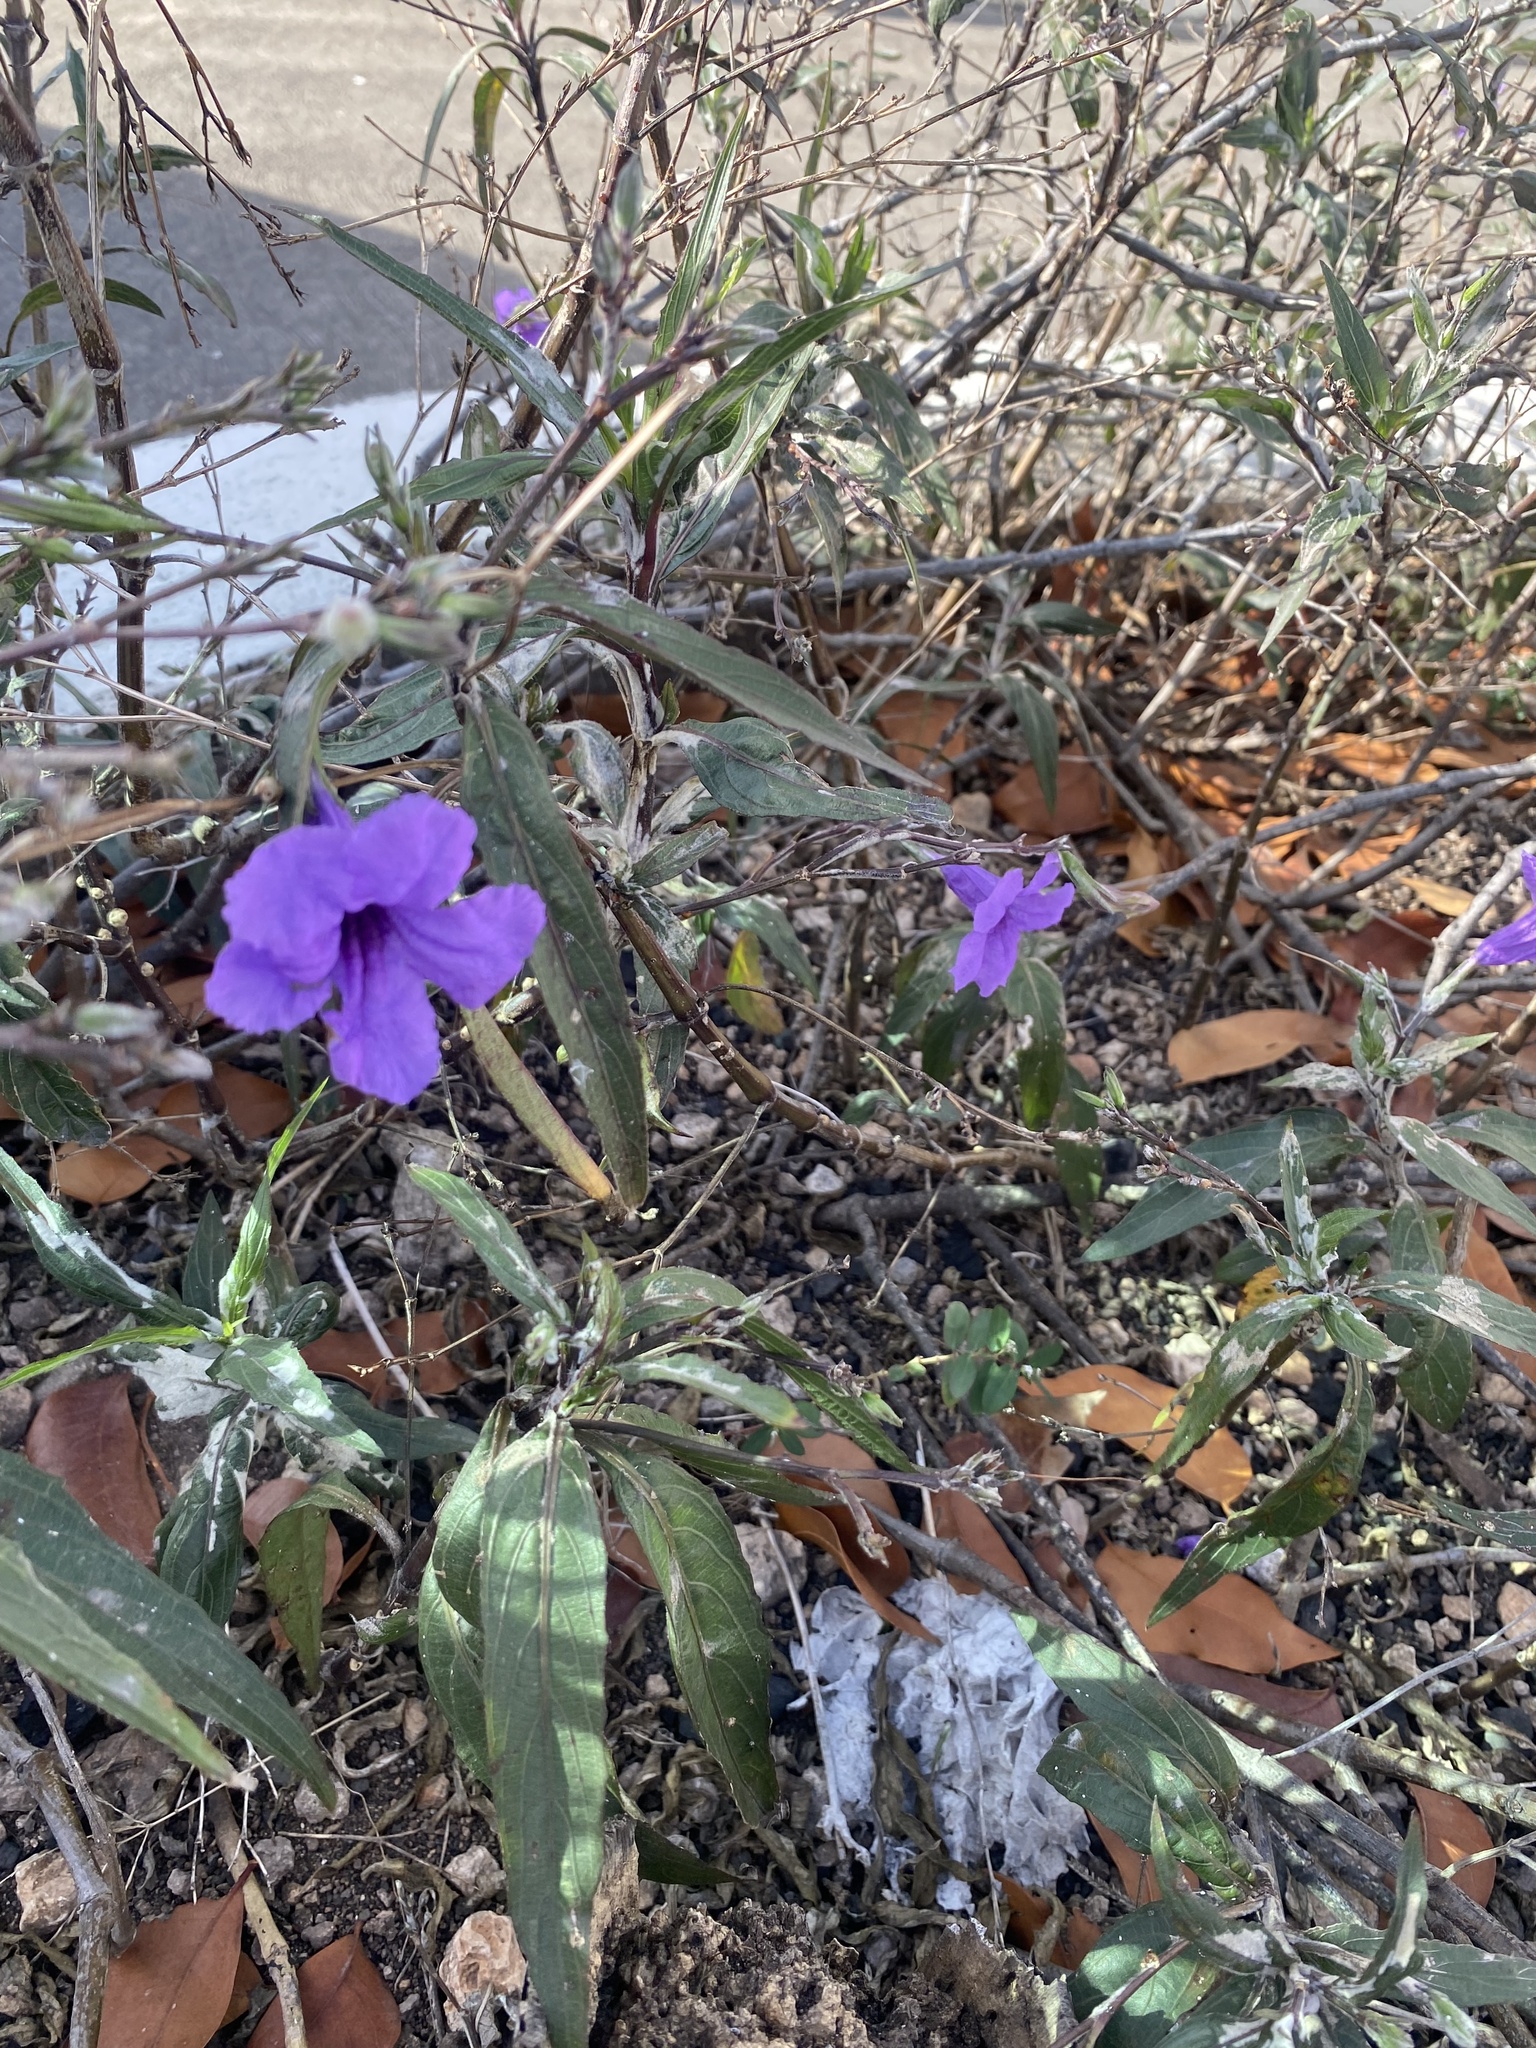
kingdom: Plantae
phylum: Tracheophyta
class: Magnoliopsida
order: Lamiales
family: Acanthaceae
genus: Ruellia
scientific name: Ruellia simplex
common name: Softseed wild petunia
